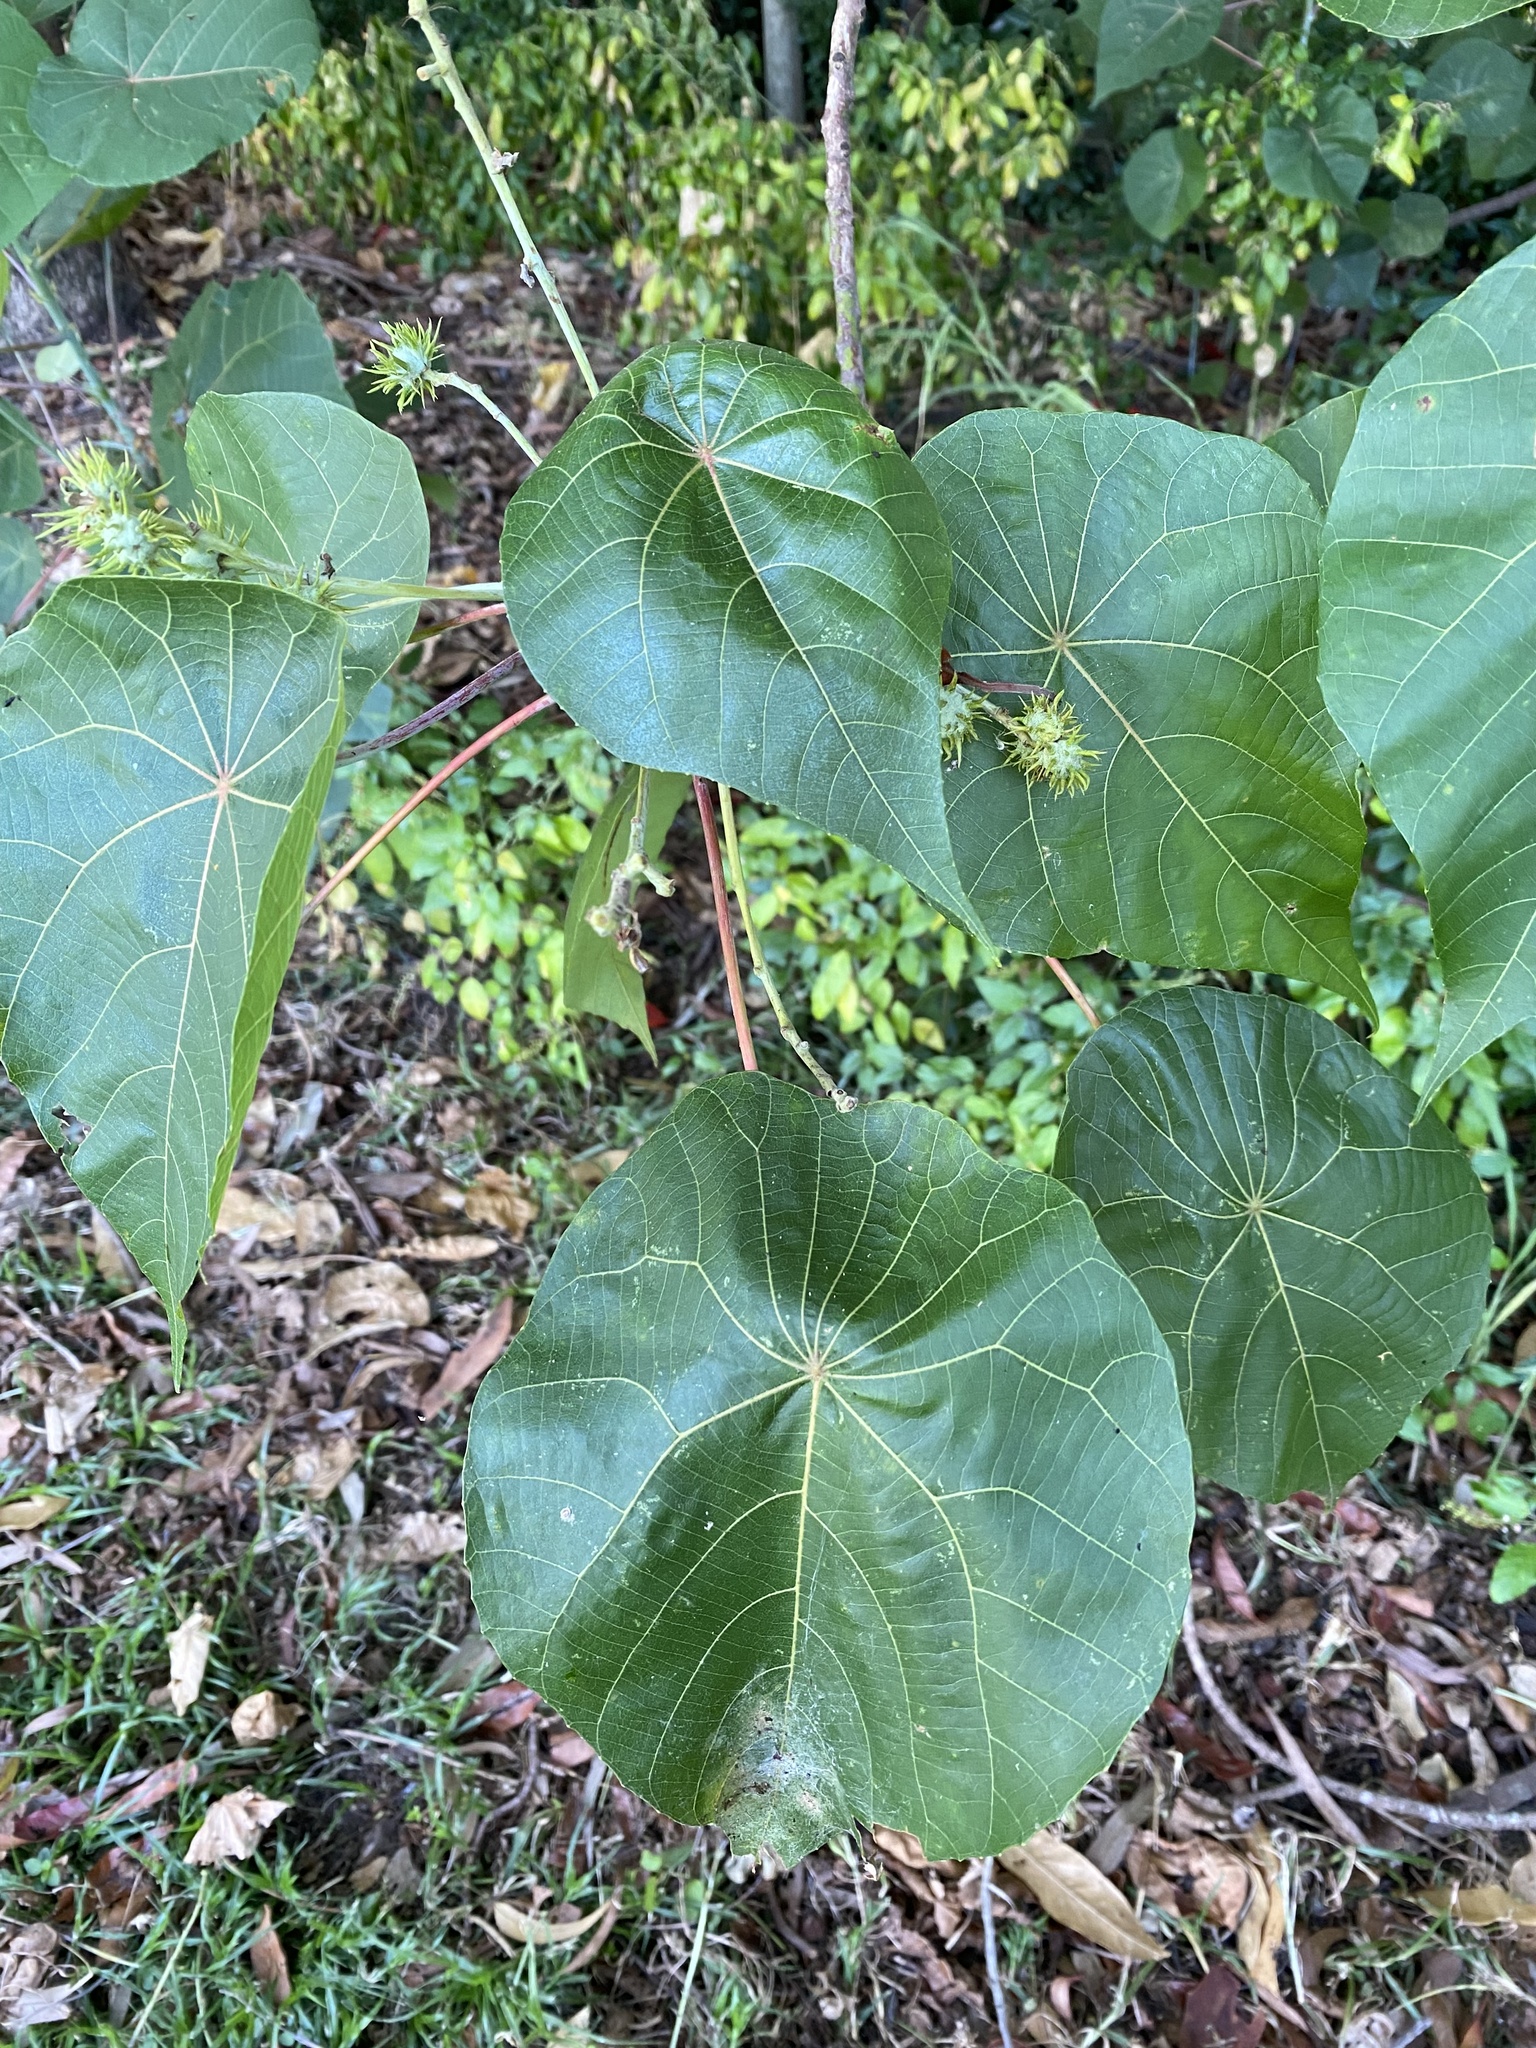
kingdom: Plantae
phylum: Tracheophyta
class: Magnoliopsida
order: Malpighiales
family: Euphorbiaceae
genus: Macaranga
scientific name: Macaranga tanarius
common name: Parasol leaf tree
